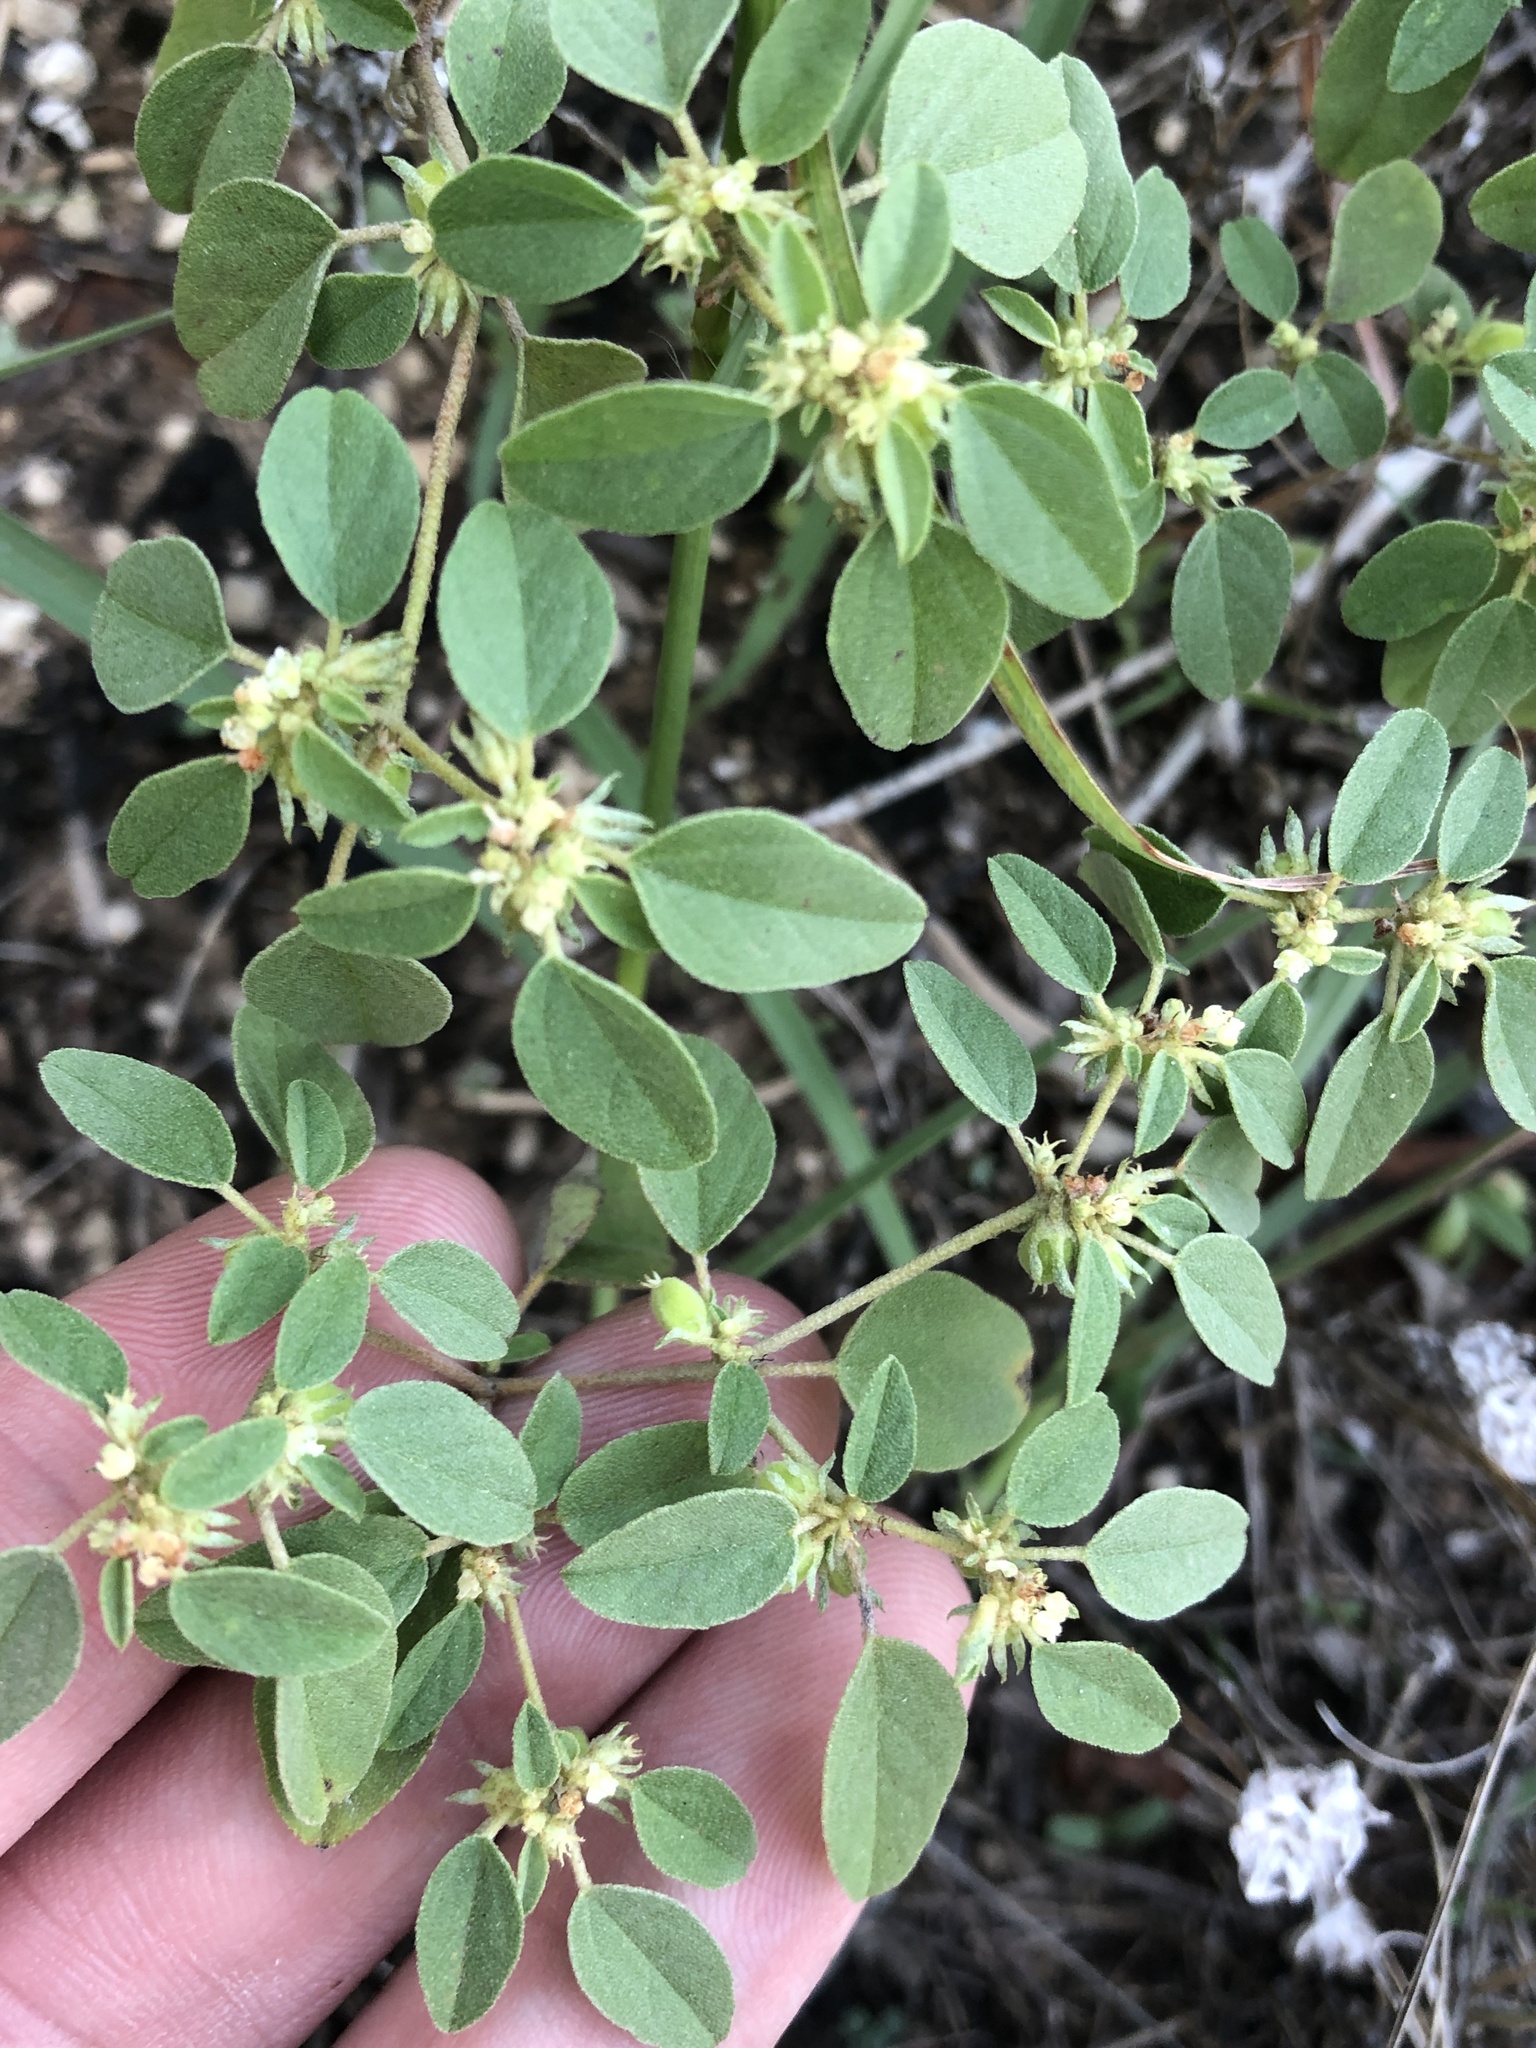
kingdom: Plantae
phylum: Tracheophyta
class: Magnoliopsida
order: Malpighiales
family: Euphorbiaceae
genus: Croton
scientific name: Croton monanthogynus
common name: One-seed croton
